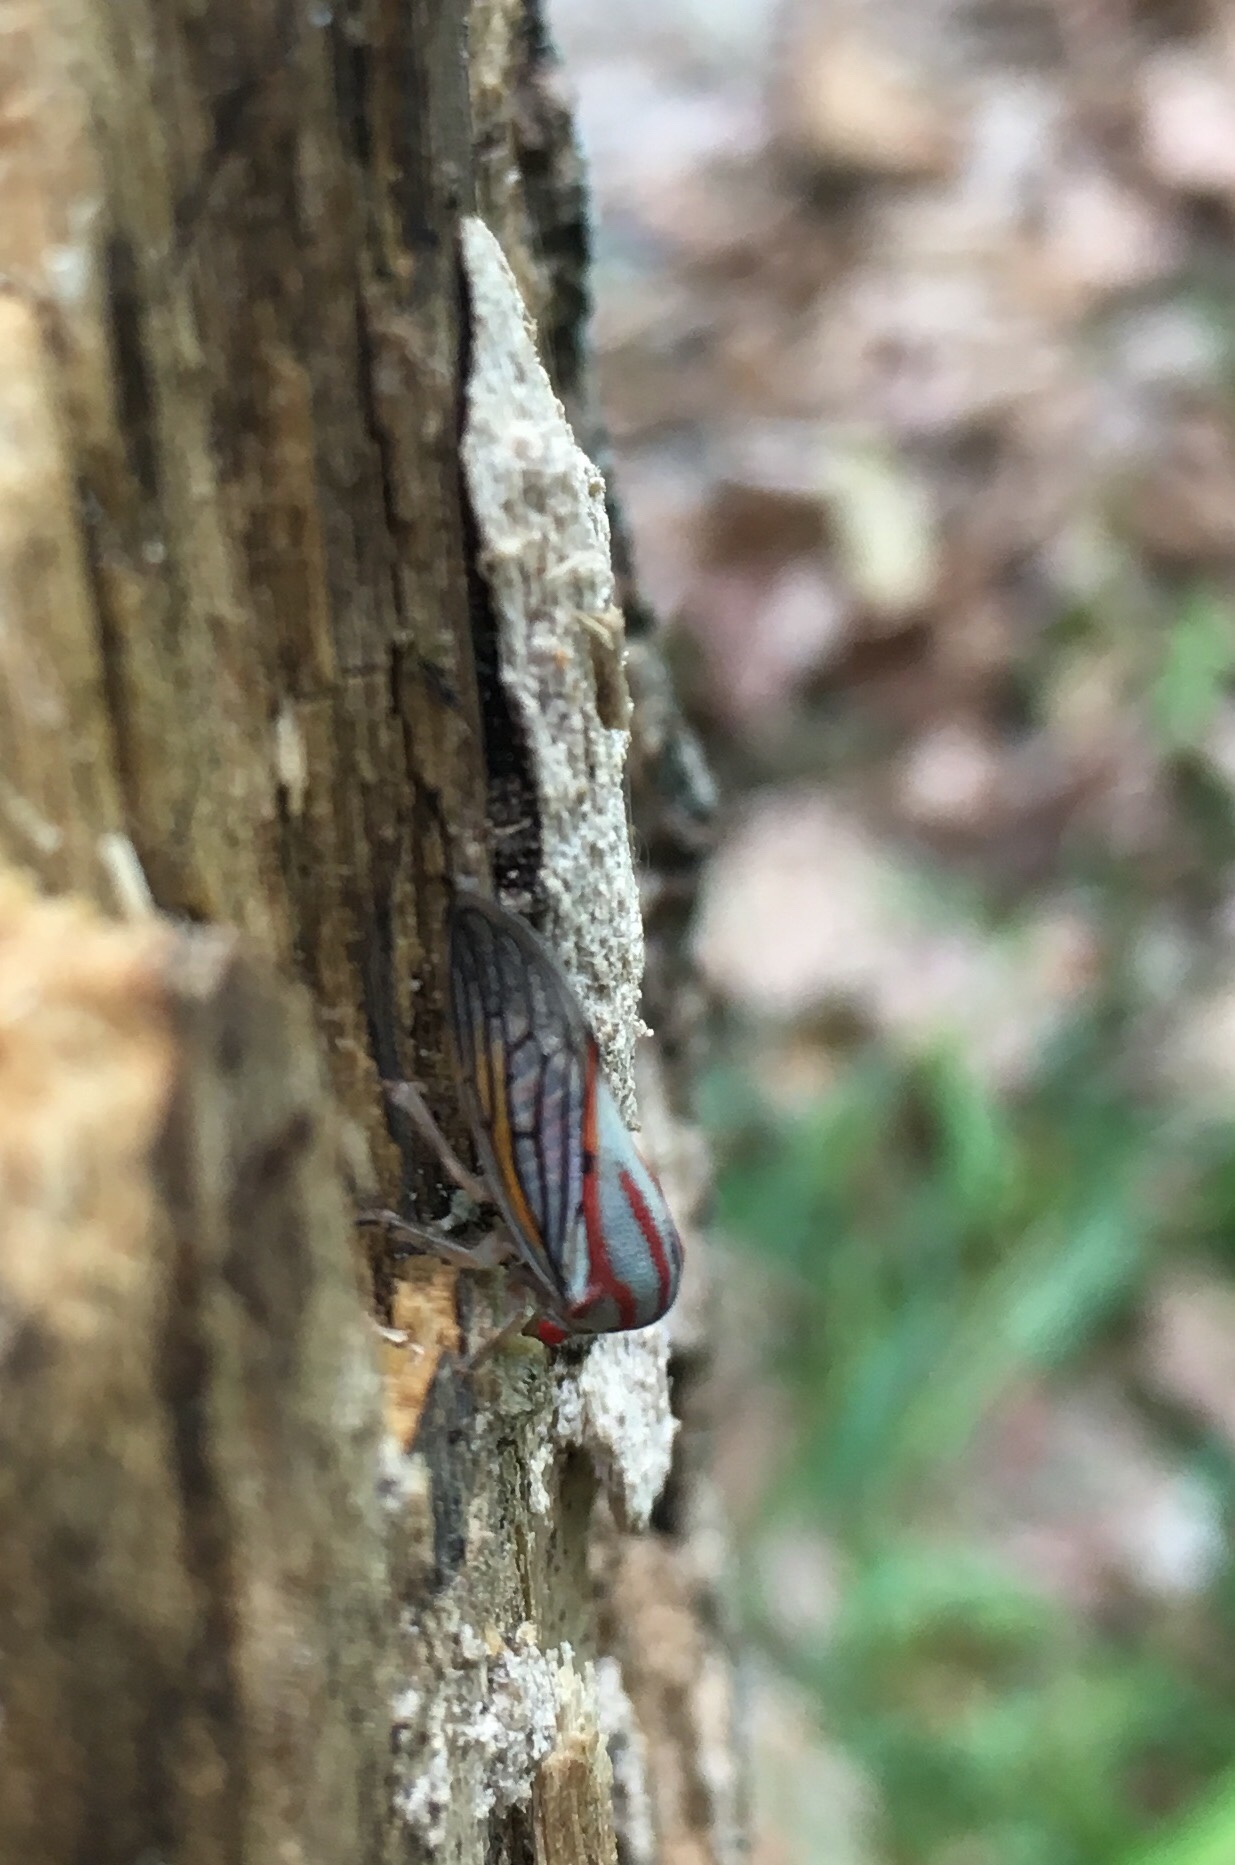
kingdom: Animalia
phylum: Arthropoda
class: Insecta
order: Hemiptera
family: Membracidae
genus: Platycotis
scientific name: Platycotis vittatus
